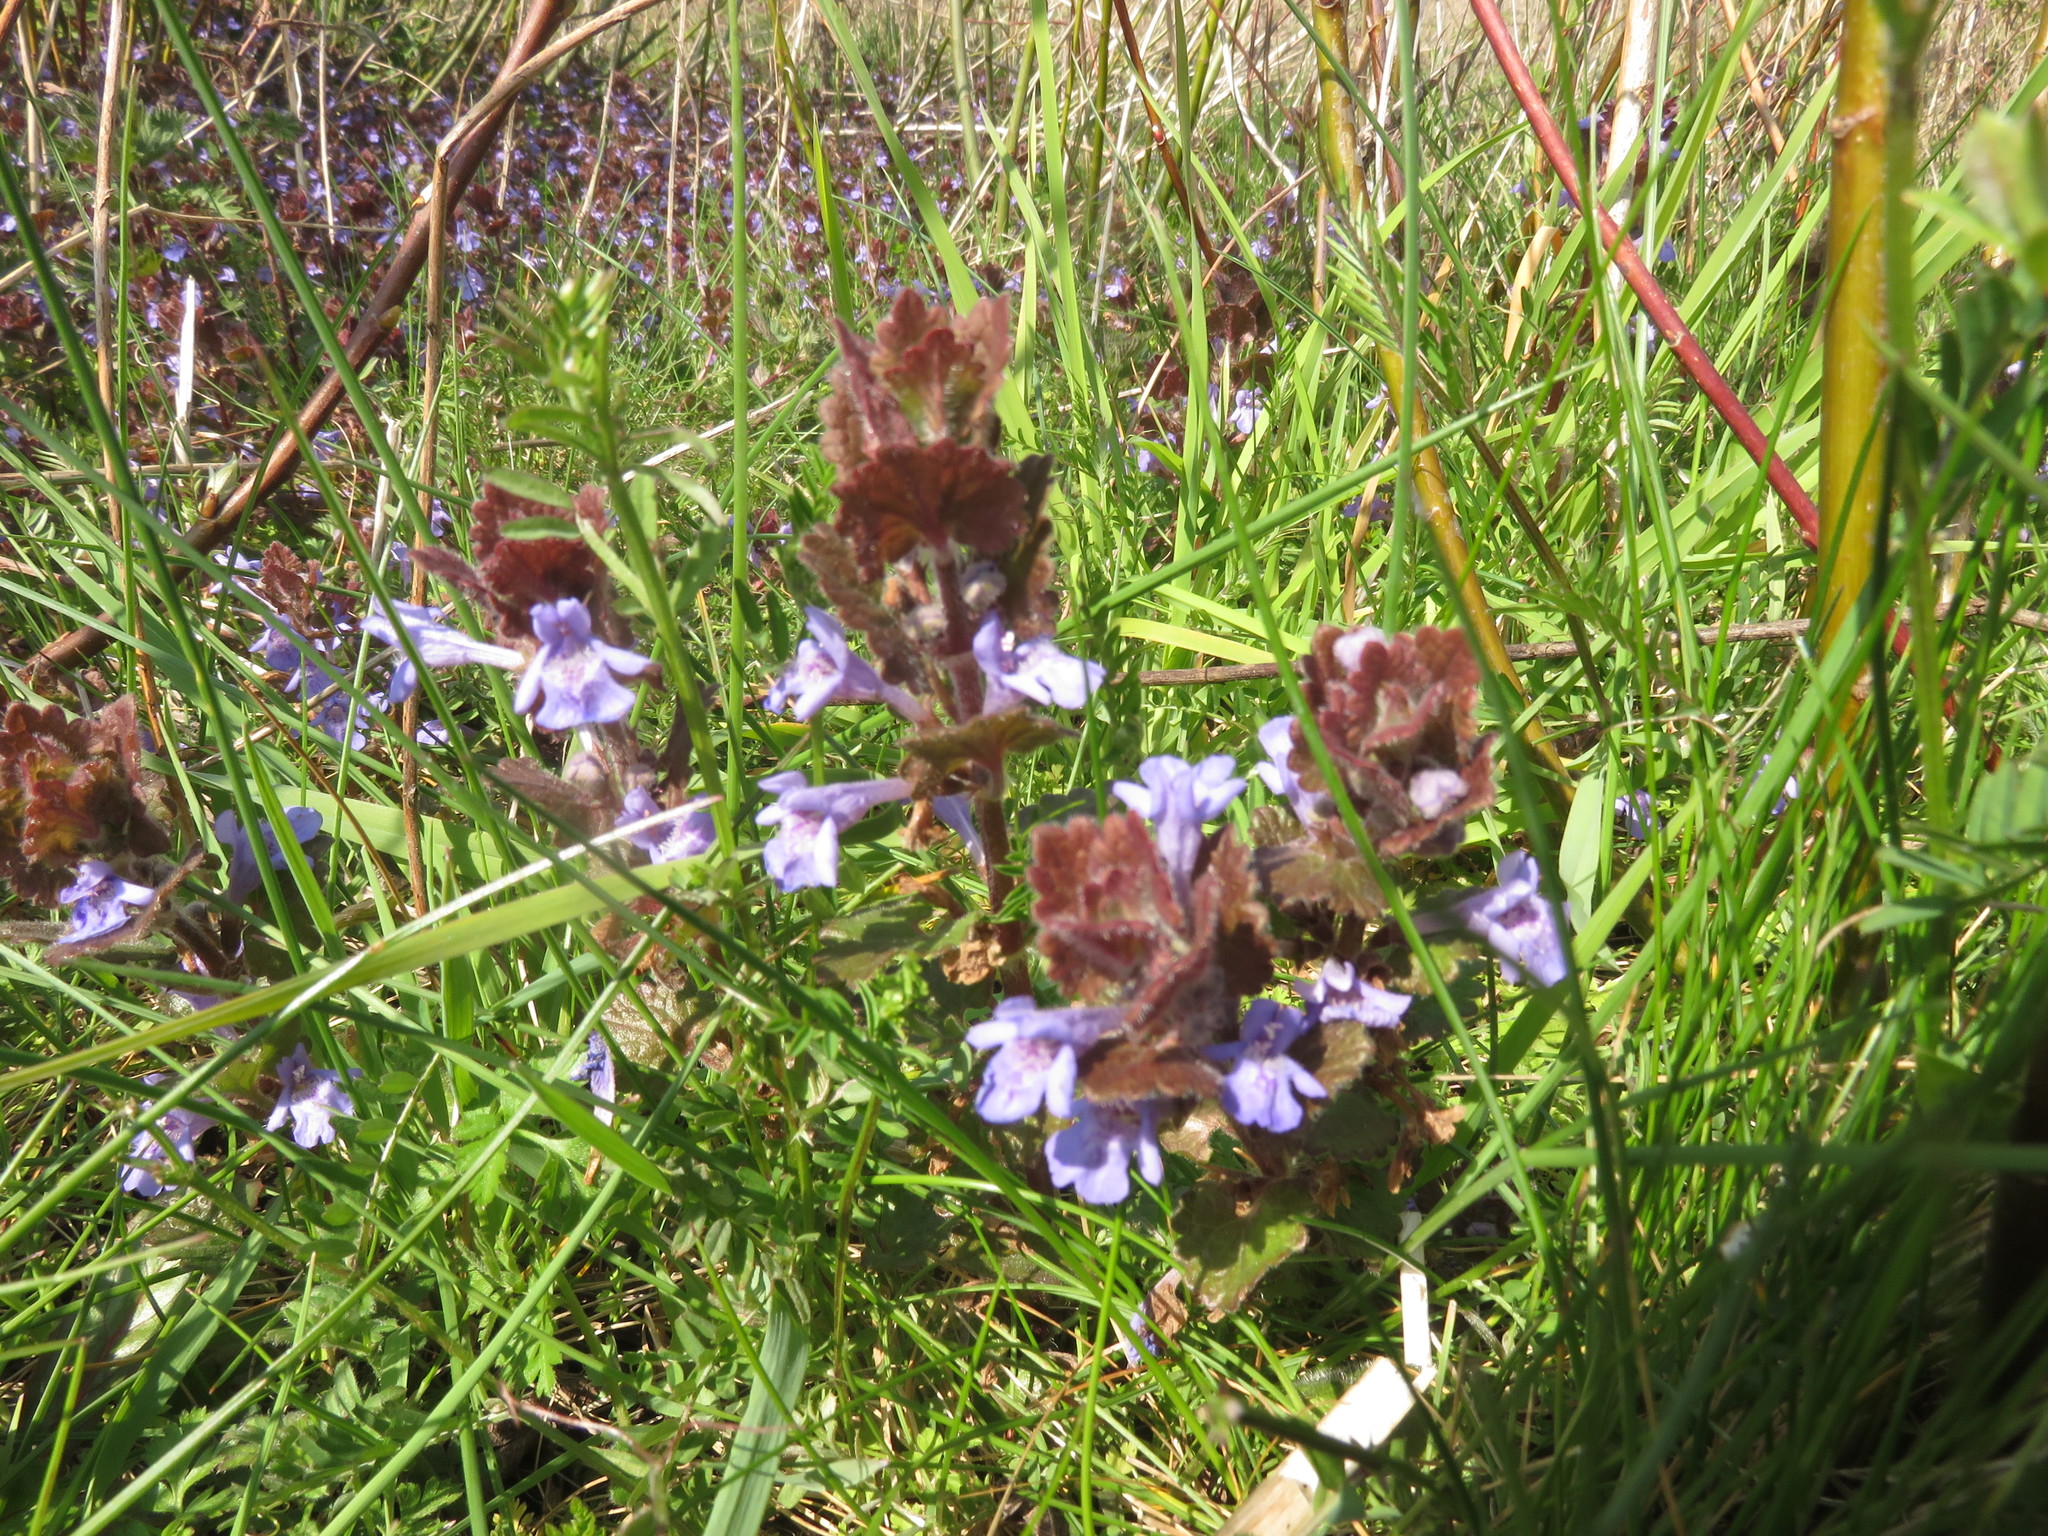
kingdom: Plantae
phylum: Tracheophyta
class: Magnoliopsida
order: Lamiales
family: Lamiaceae
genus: Glechoma
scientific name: Glechoma hederacea
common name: Ground ivy
